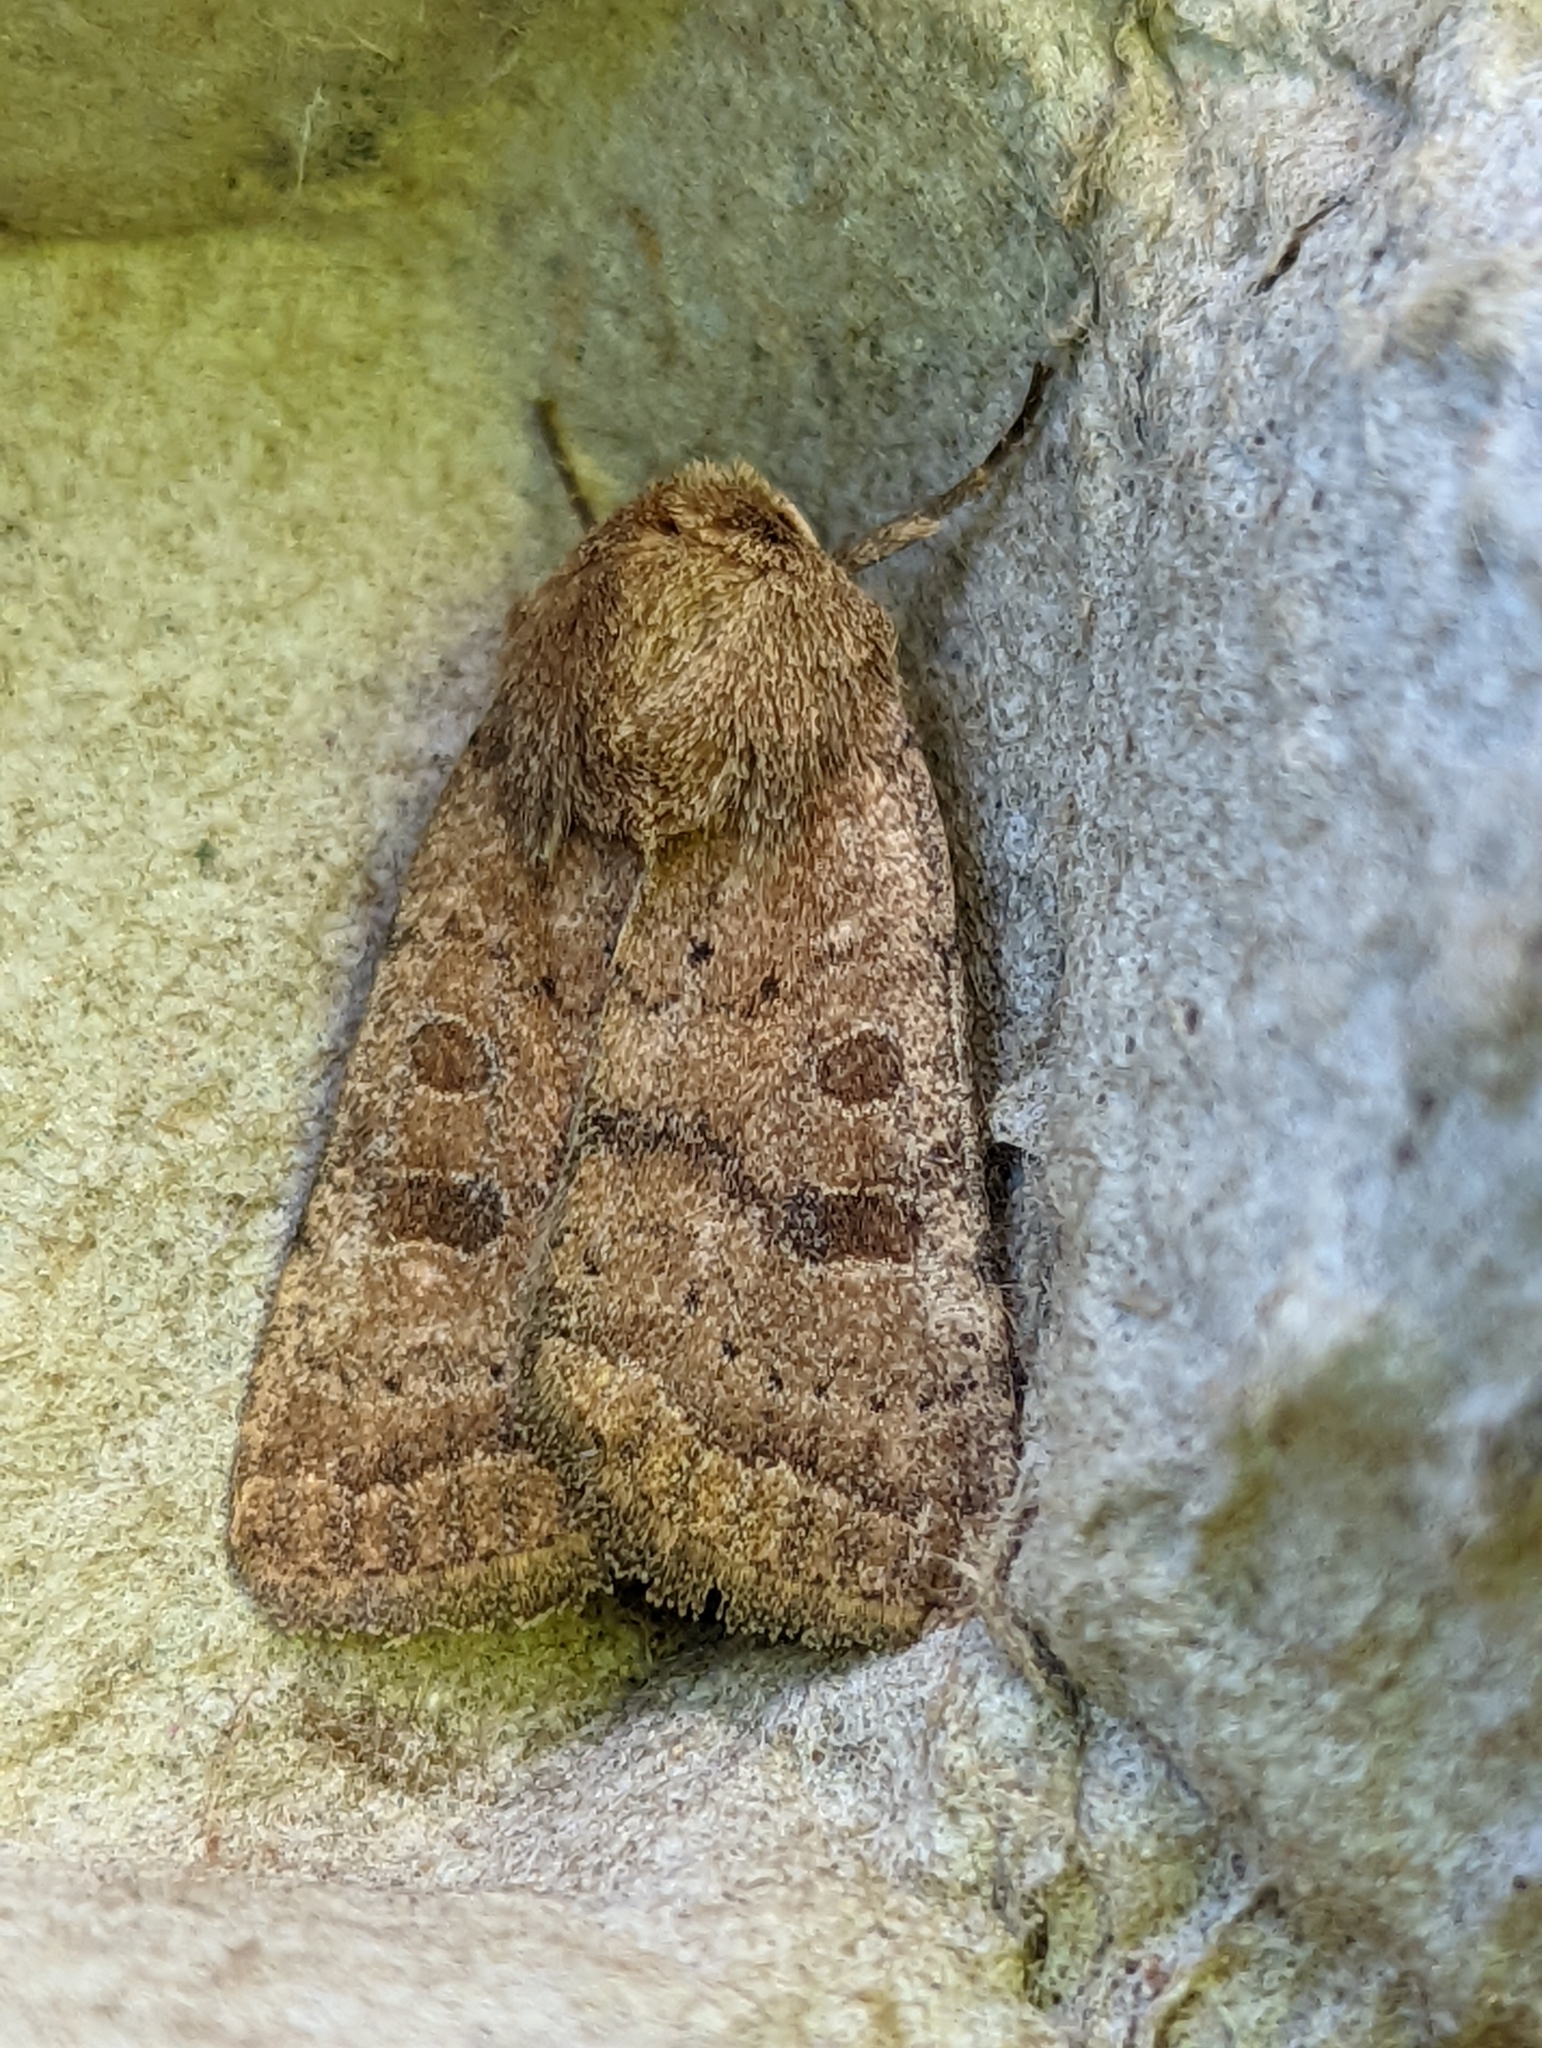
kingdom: Animalia
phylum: Arthropoda
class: Insecta
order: Lepidoptera
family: Noctuidae
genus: Hoplodrina
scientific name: Hoplodrina octogenaria
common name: Uncertain
